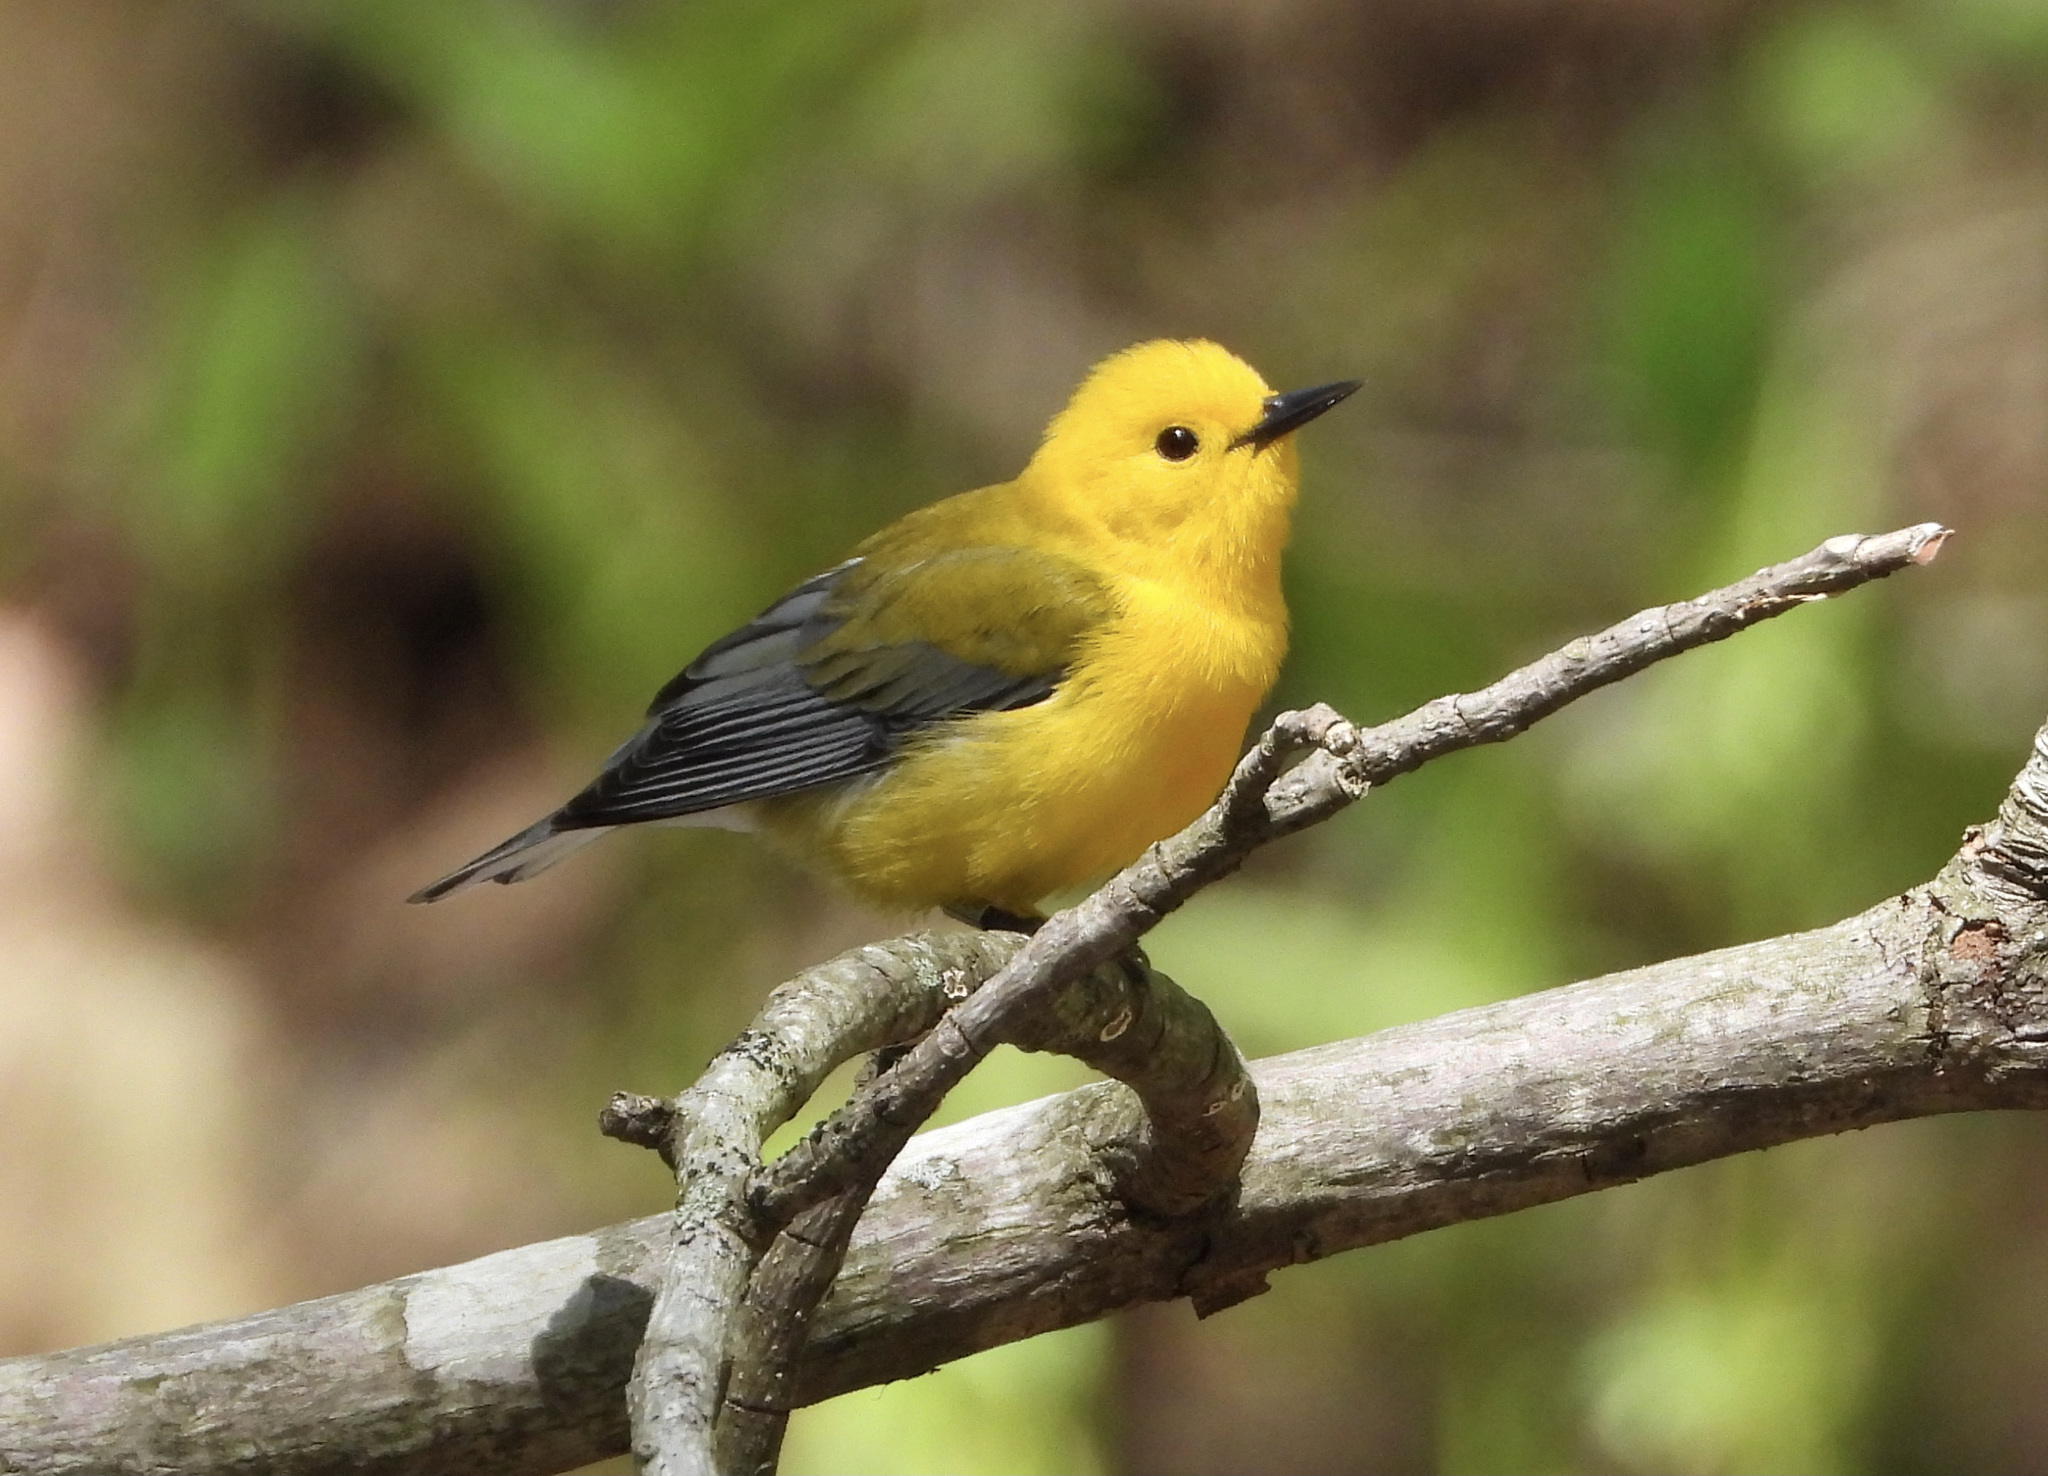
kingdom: Animalia
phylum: Chordata
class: Aves
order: Passeriformes
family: Parulidae
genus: Protonotaria
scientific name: Protonotaria citrea
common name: Prothonotary warbler
